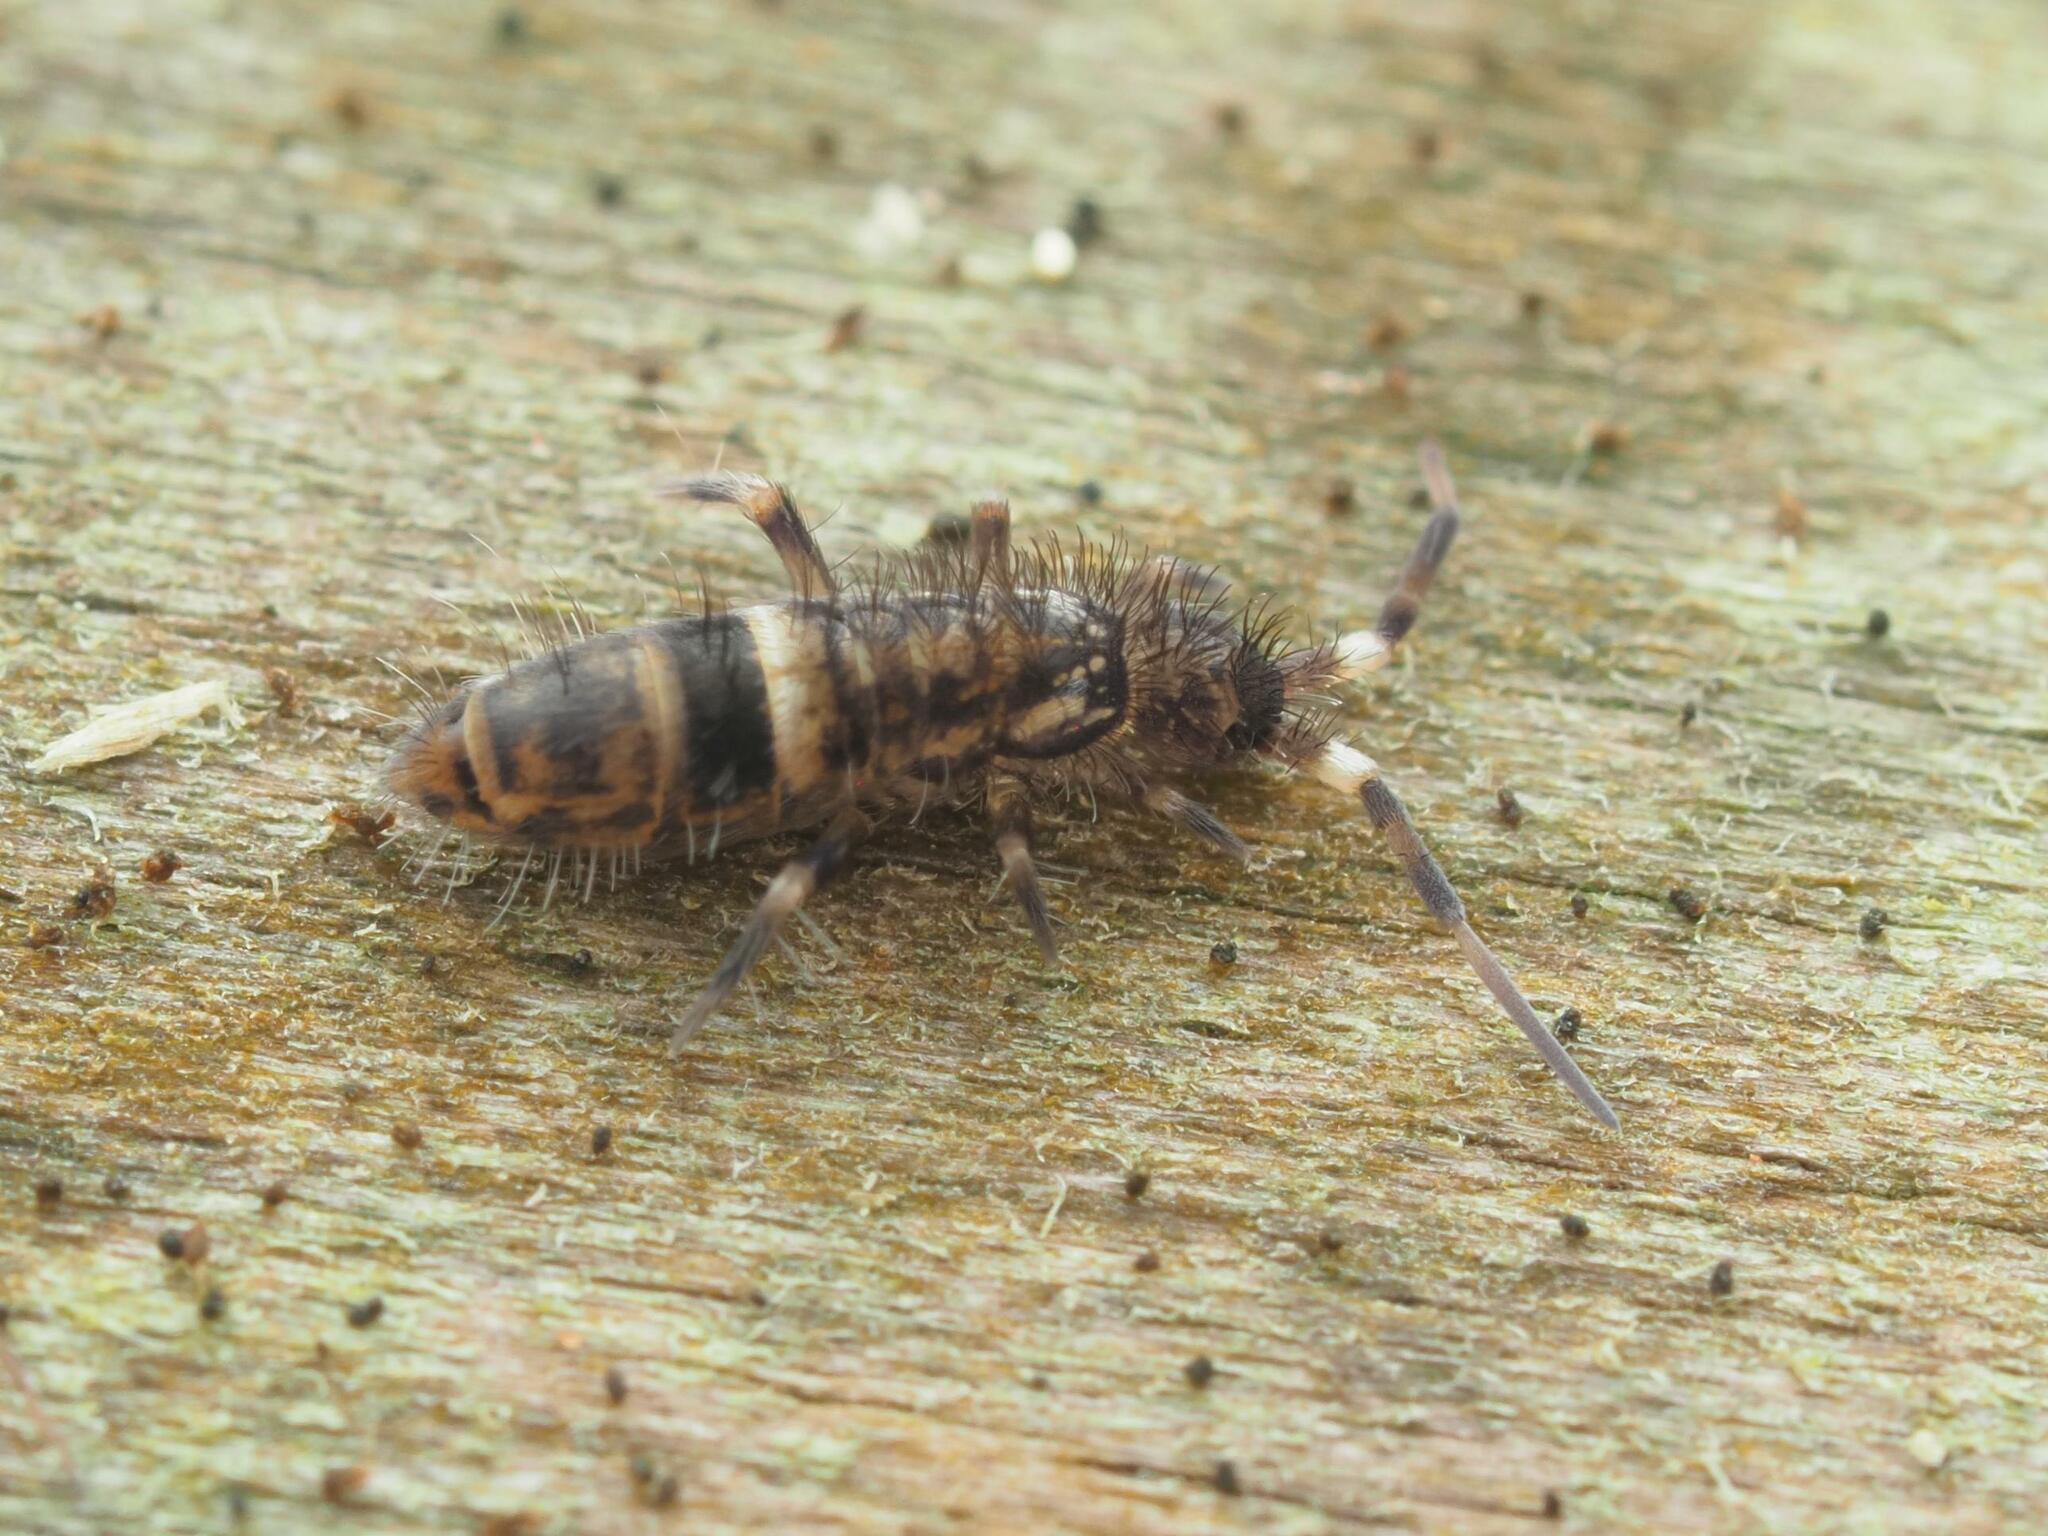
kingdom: Animalia
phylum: Arthropoda
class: Collembola
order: Entomobryomorpha
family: Orchesellidae
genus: Orchesella
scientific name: Orchesella cincta
